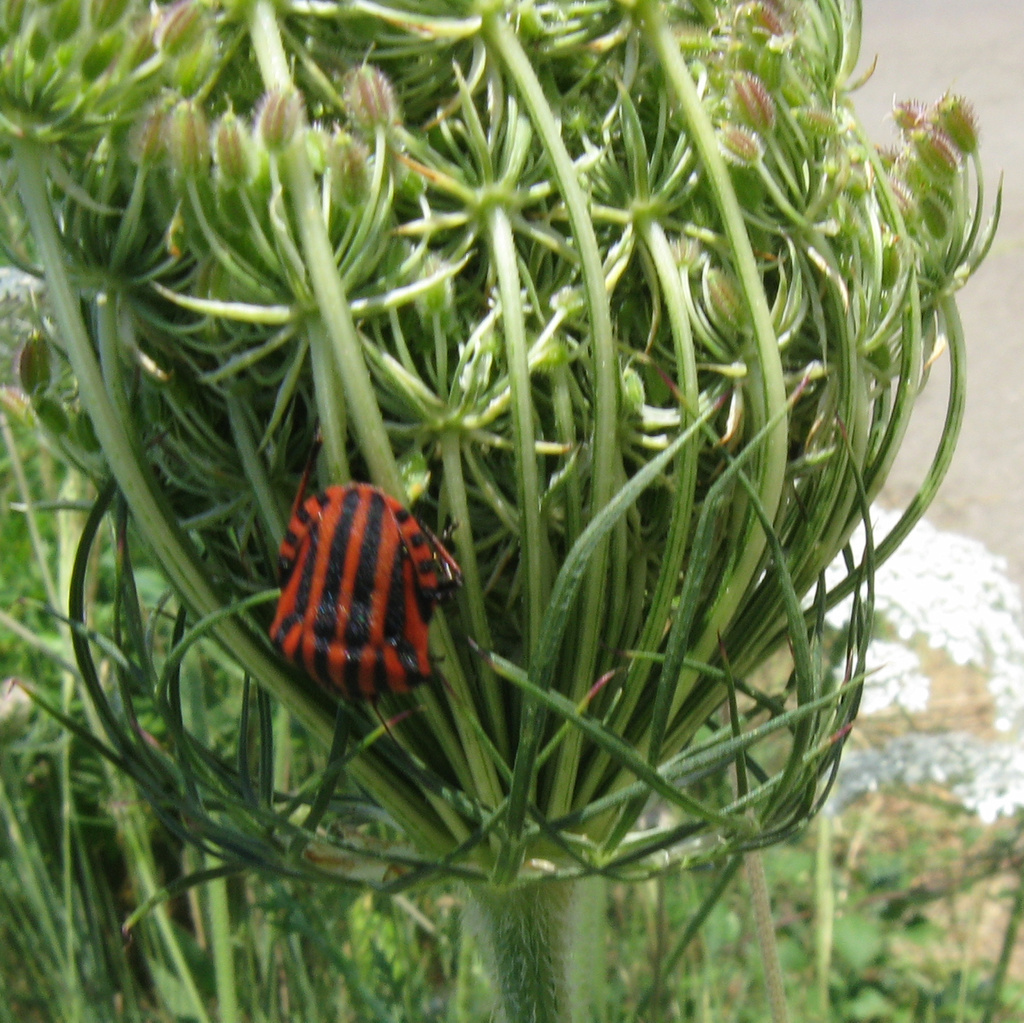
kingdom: Animalia
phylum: Arthropoda
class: Insecta
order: Hemiptera
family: Pentatomidae
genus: Graphosoma
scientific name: Graphosoma italicum
